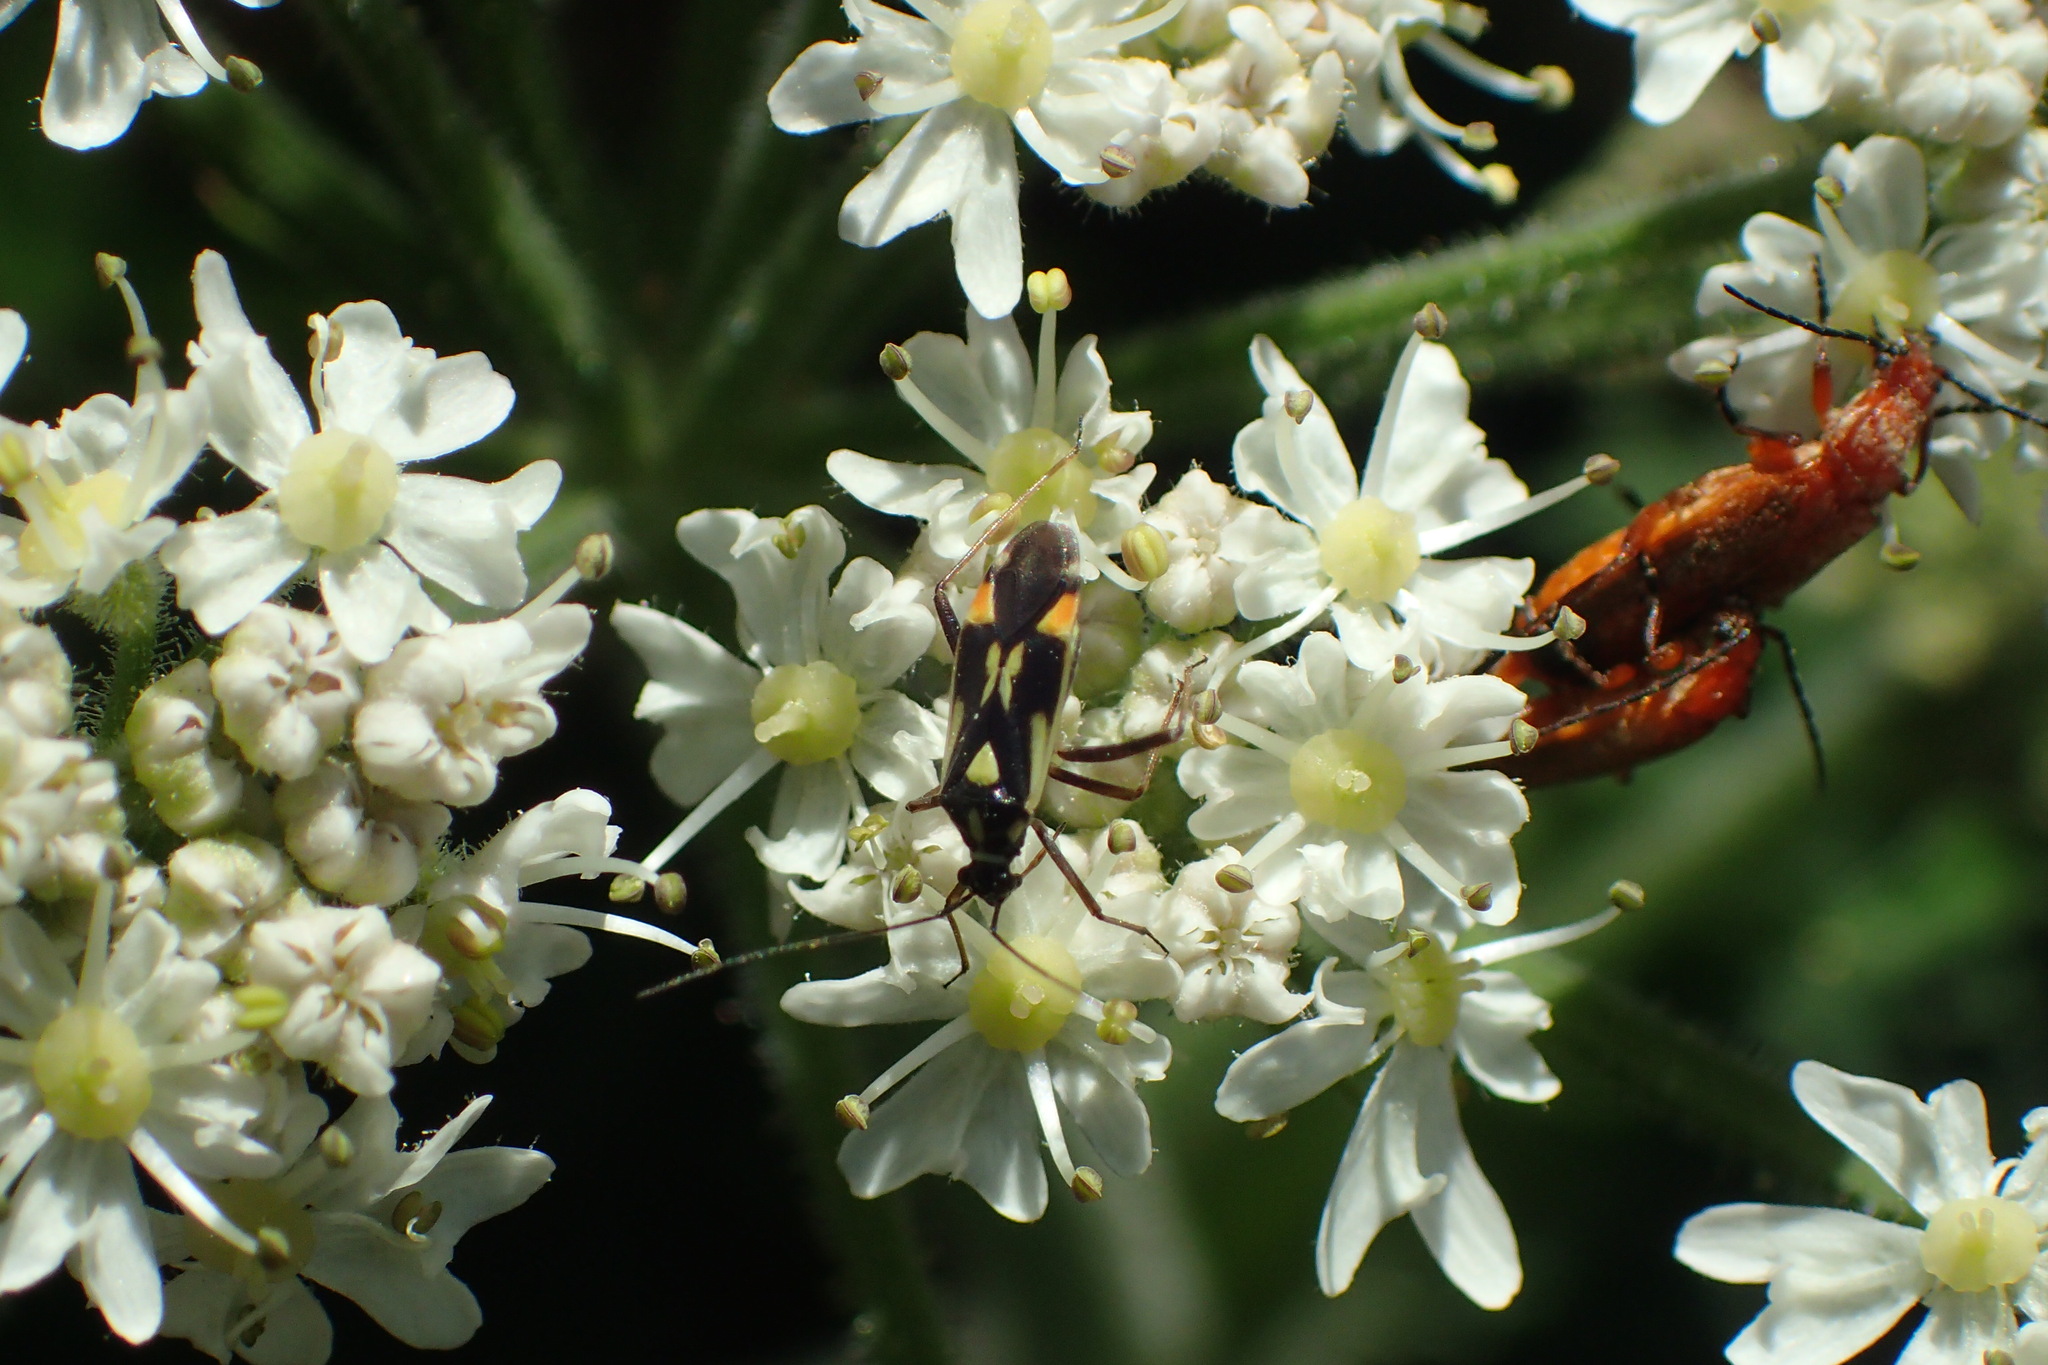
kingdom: Animalia
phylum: Arthropoda
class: Insecta
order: Hemiptera
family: Miridae
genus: Grypocoris
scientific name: Grypocoris stysi
